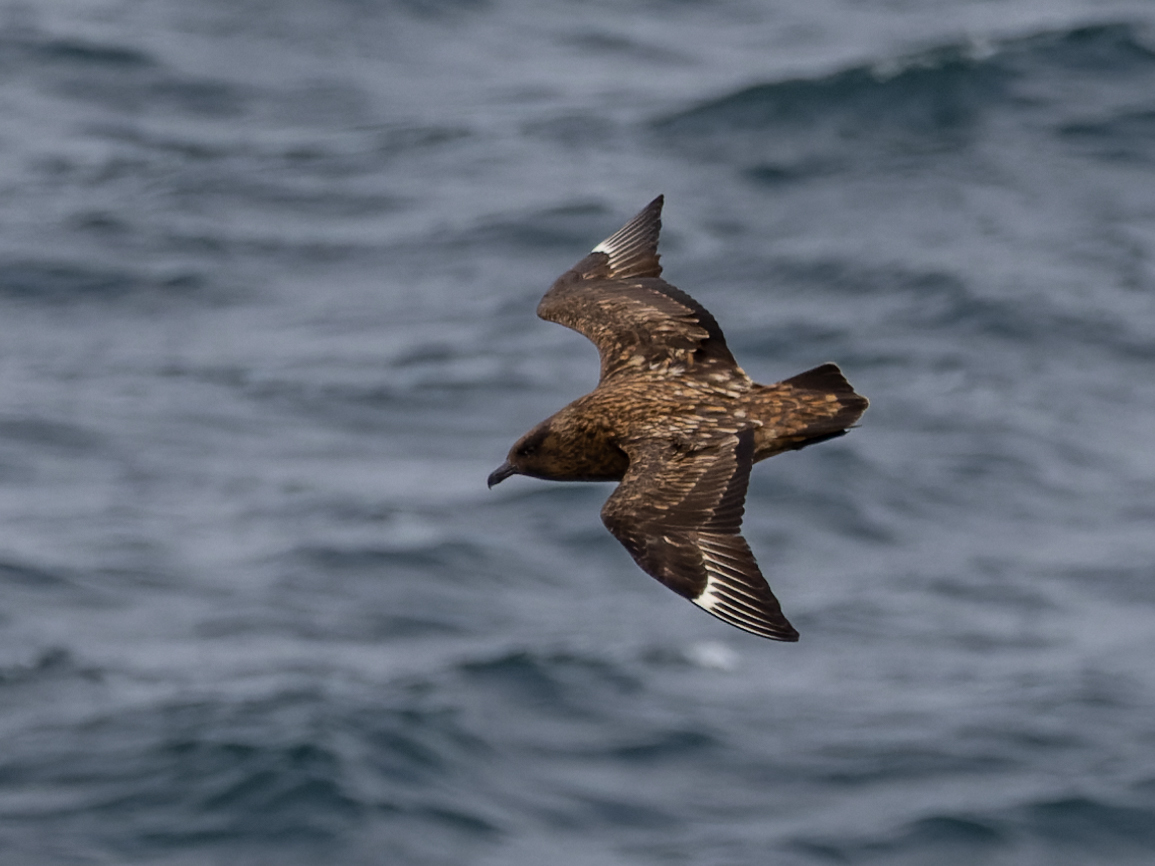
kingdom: Animalia
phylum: Chordata
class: Aves
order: Charadriiformes
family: Stercorariidae
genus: Stercorarius
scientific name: Stercorarius skua
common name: Great skua
